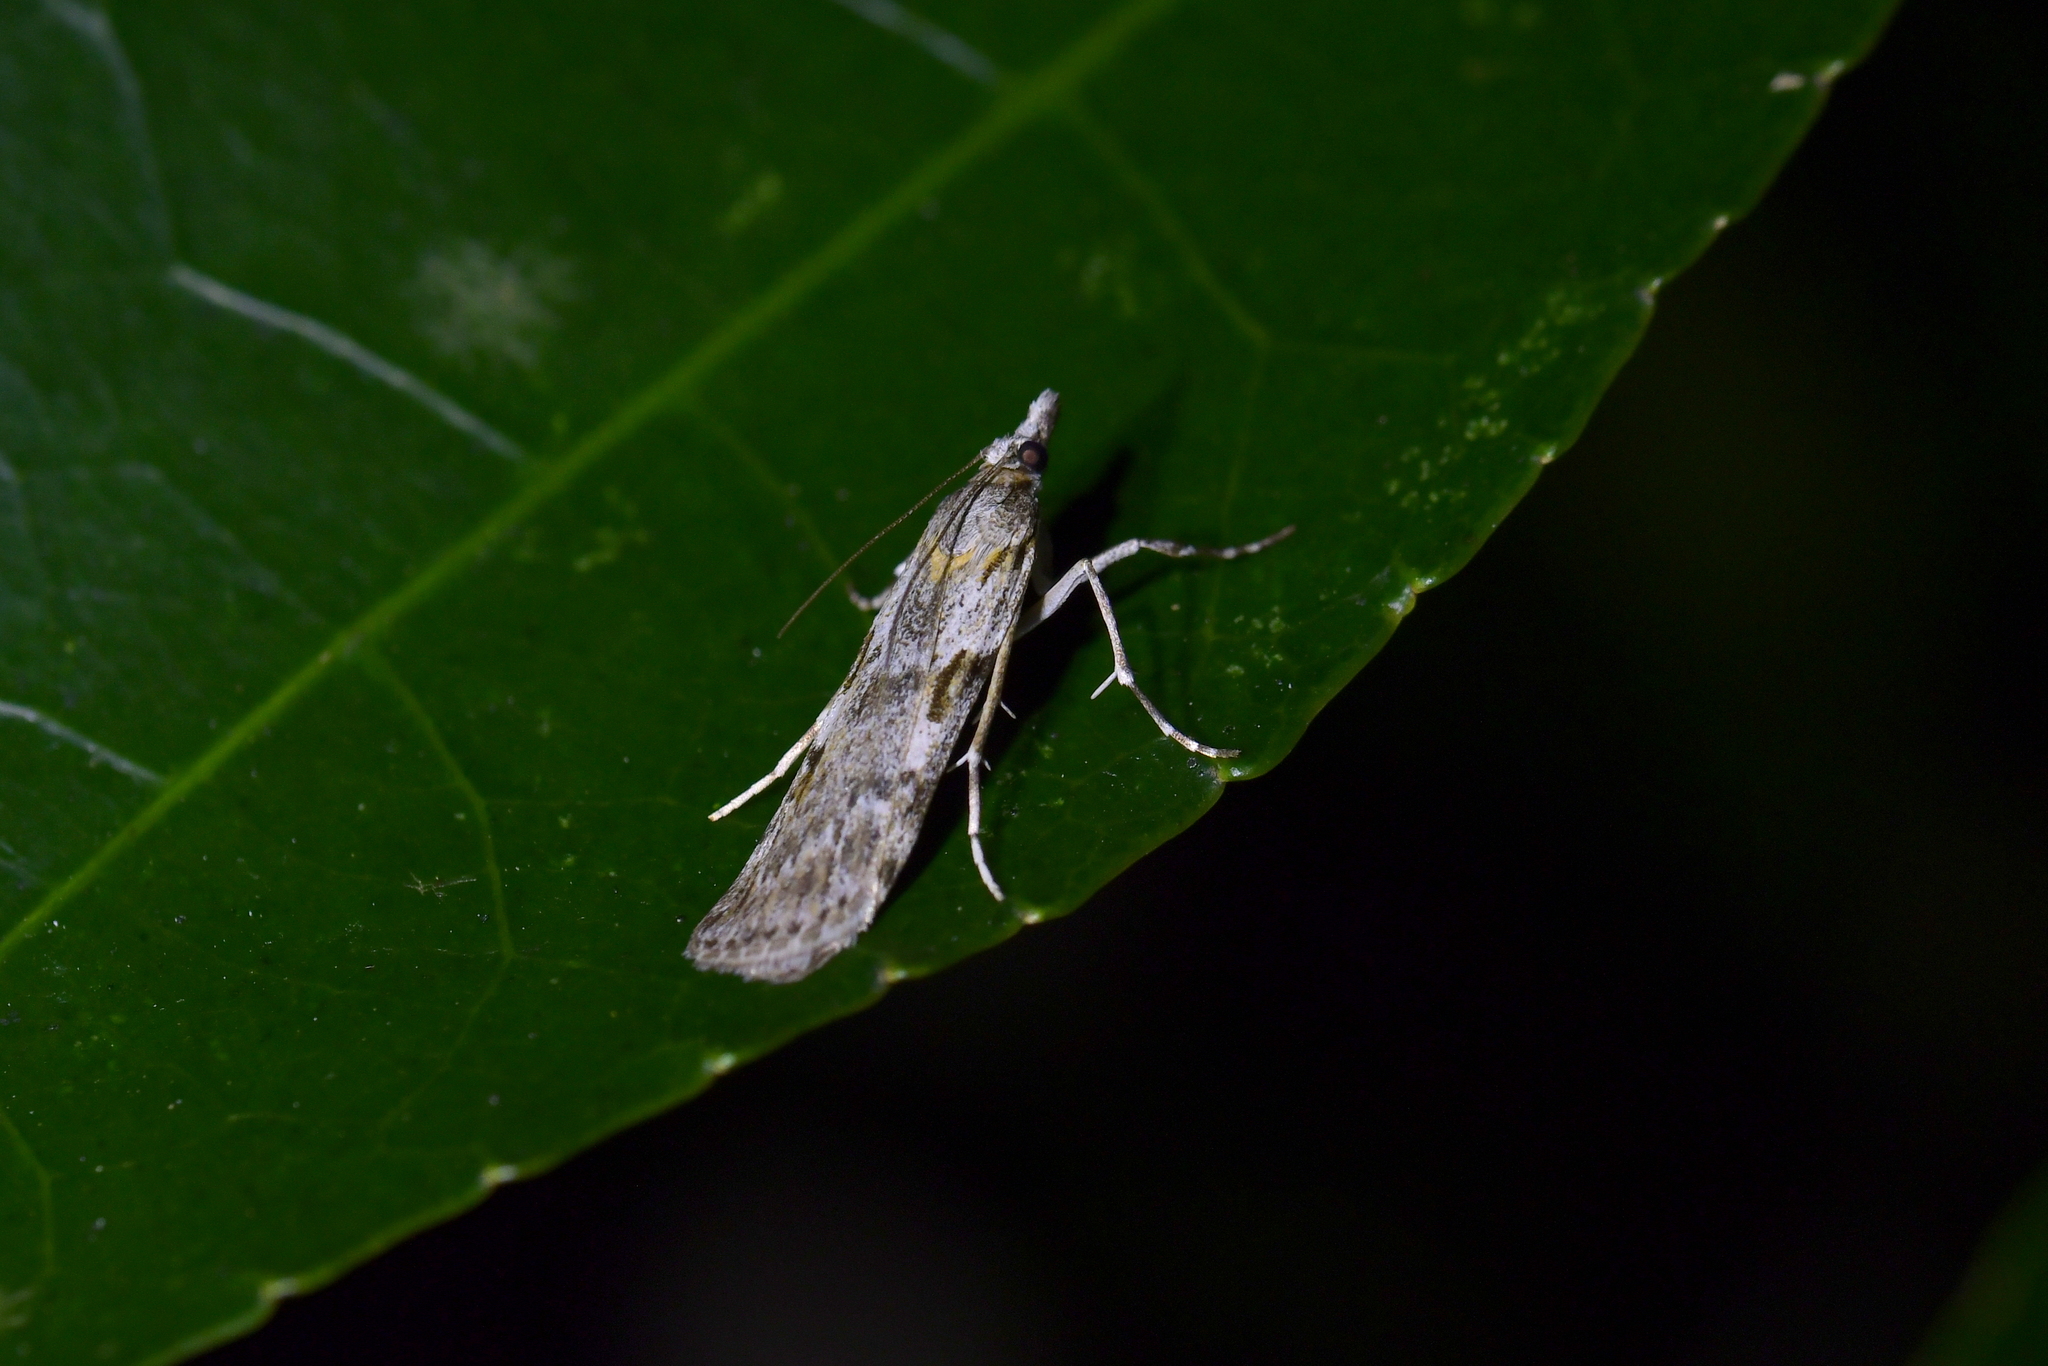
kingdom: Animalia
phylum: Arthropoda
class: Insecta
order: Lepidoptera
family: Crambidae
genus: Scoparia
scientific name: Scoparia halopis
